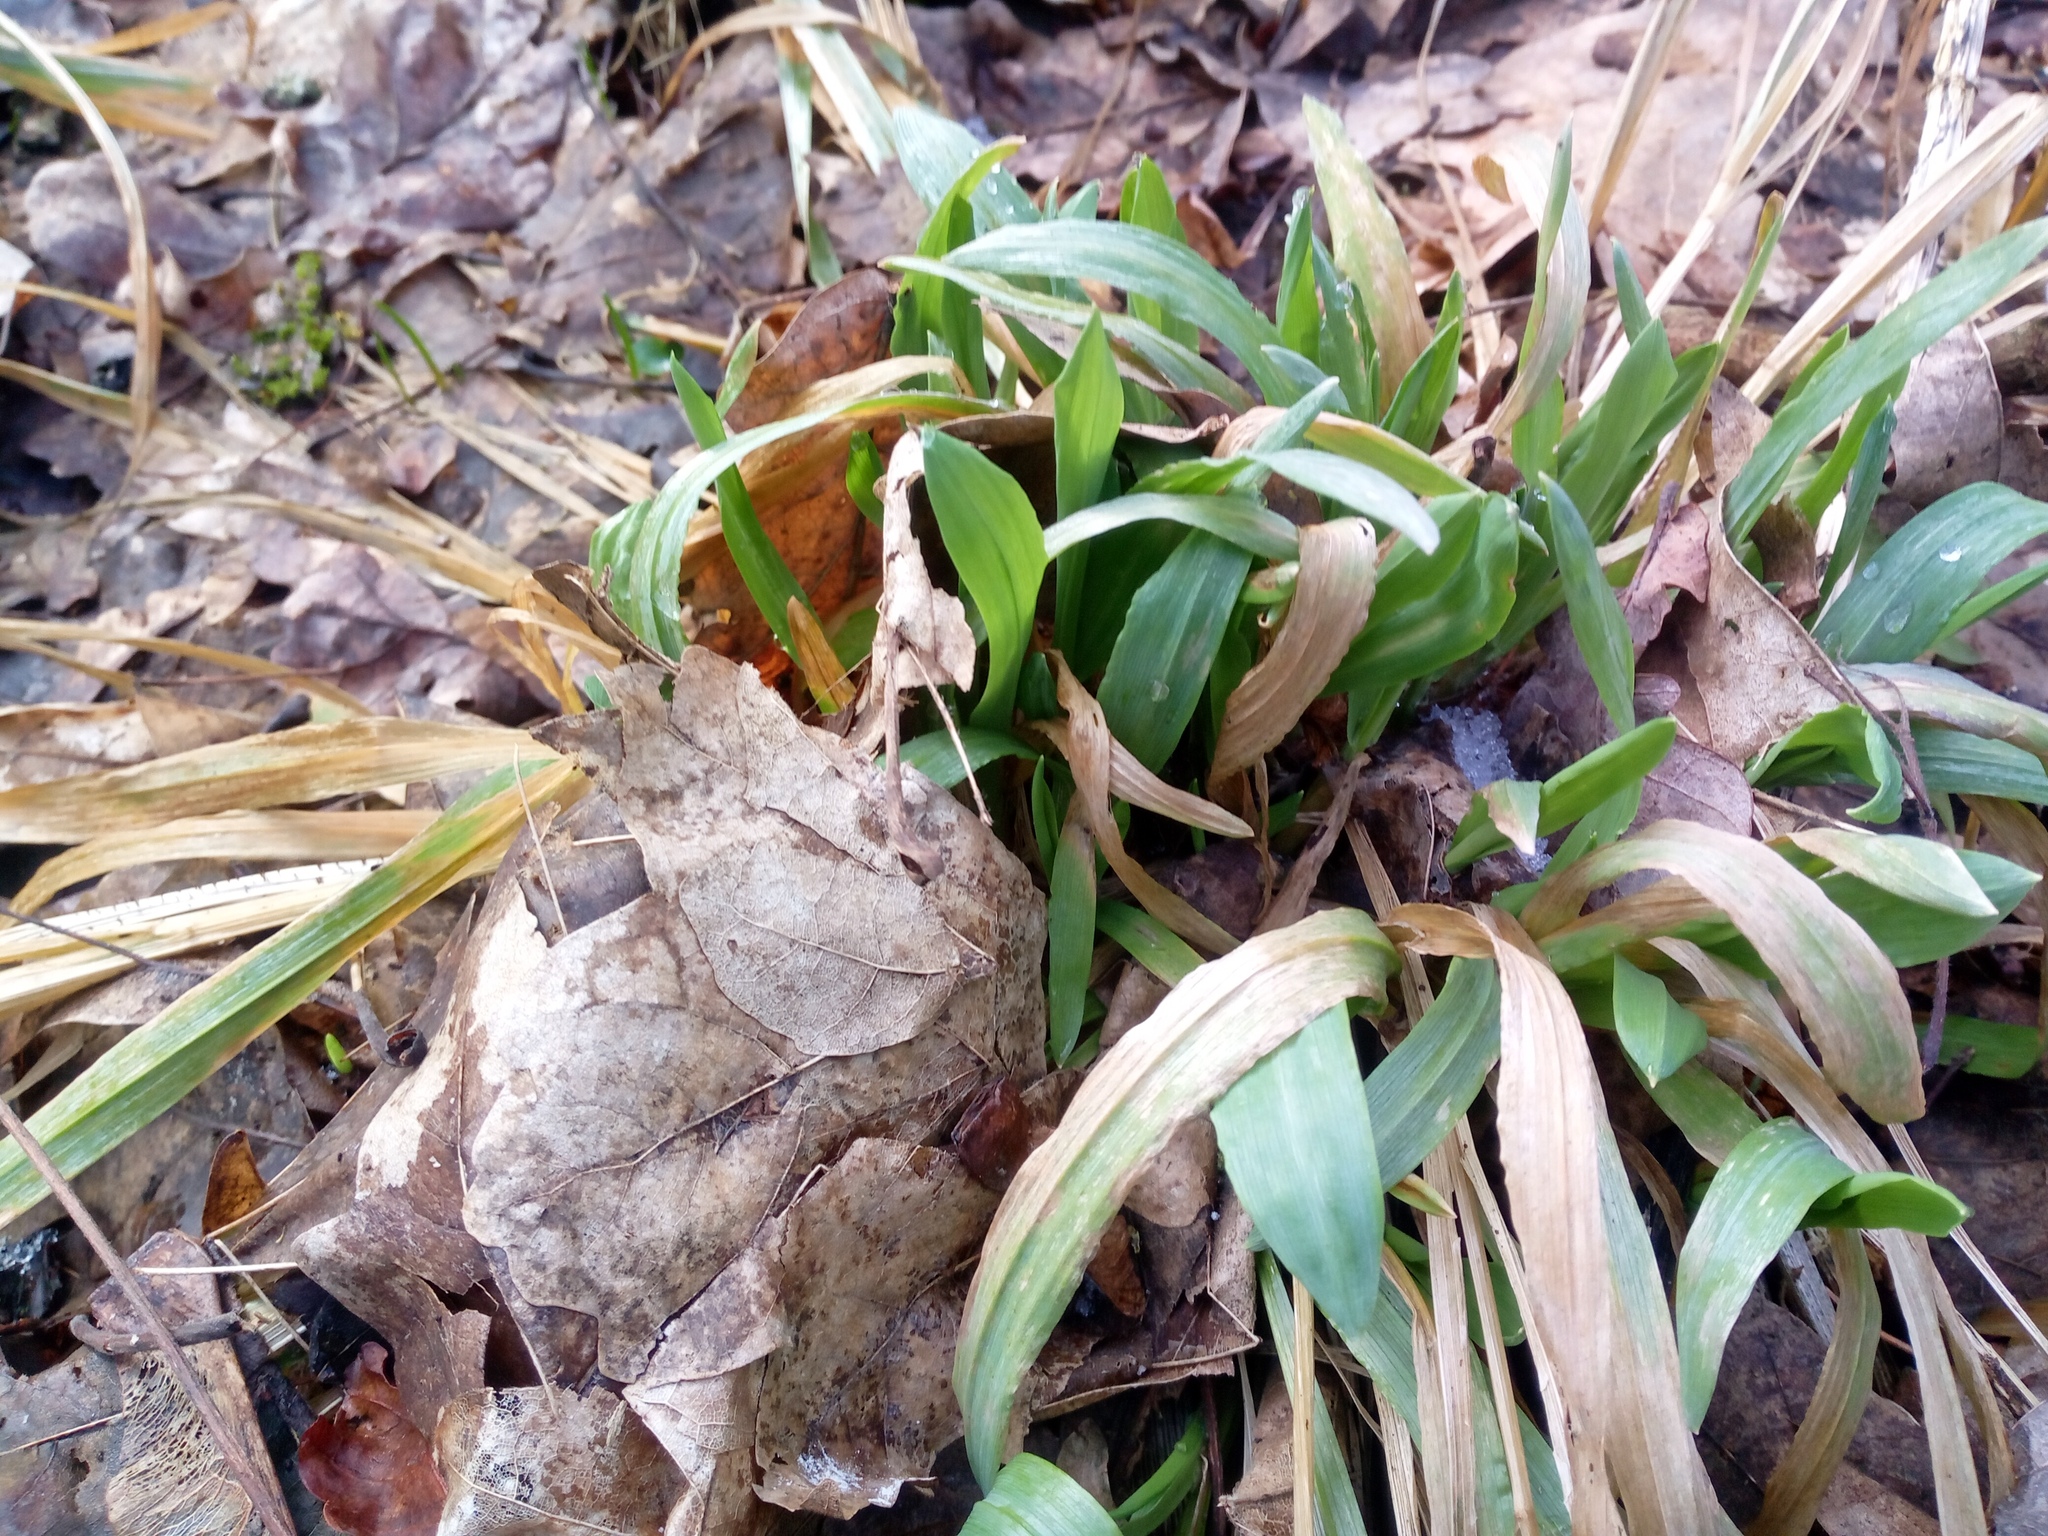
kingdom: Plantae
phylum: Tracheophyta
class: Liliopsida
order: Poales
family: Poaceae
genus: Milium
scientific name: Milium effusum
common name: Wood millet
